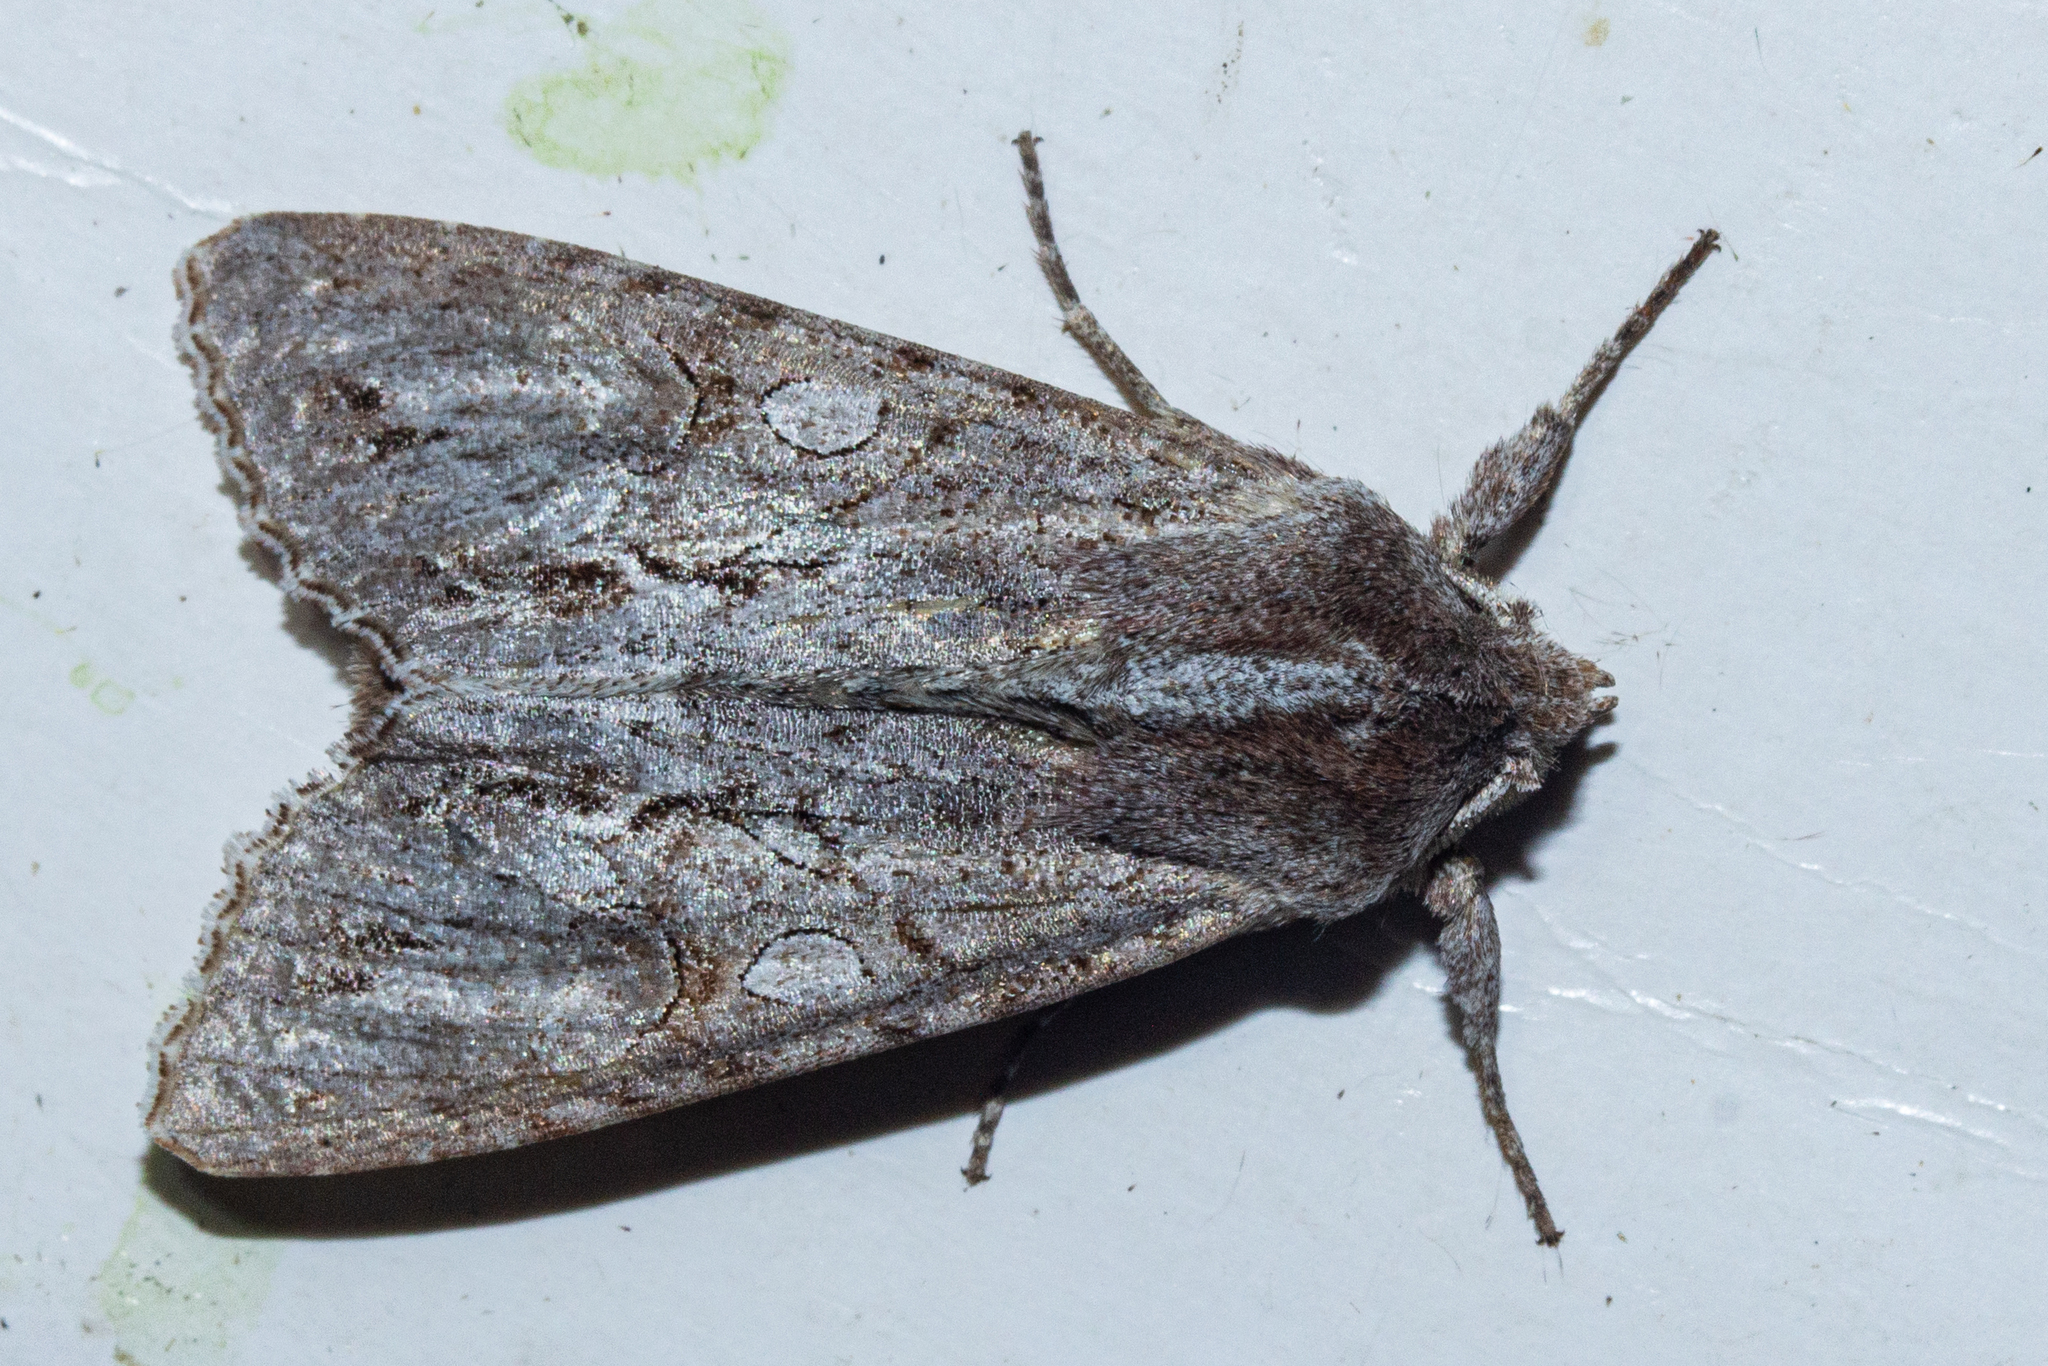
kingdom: Animalia
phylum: Arthropoda
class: Insecta
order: Lepidoptera
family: Noctuidae
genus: Ichneutica
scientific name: Ichneutica
